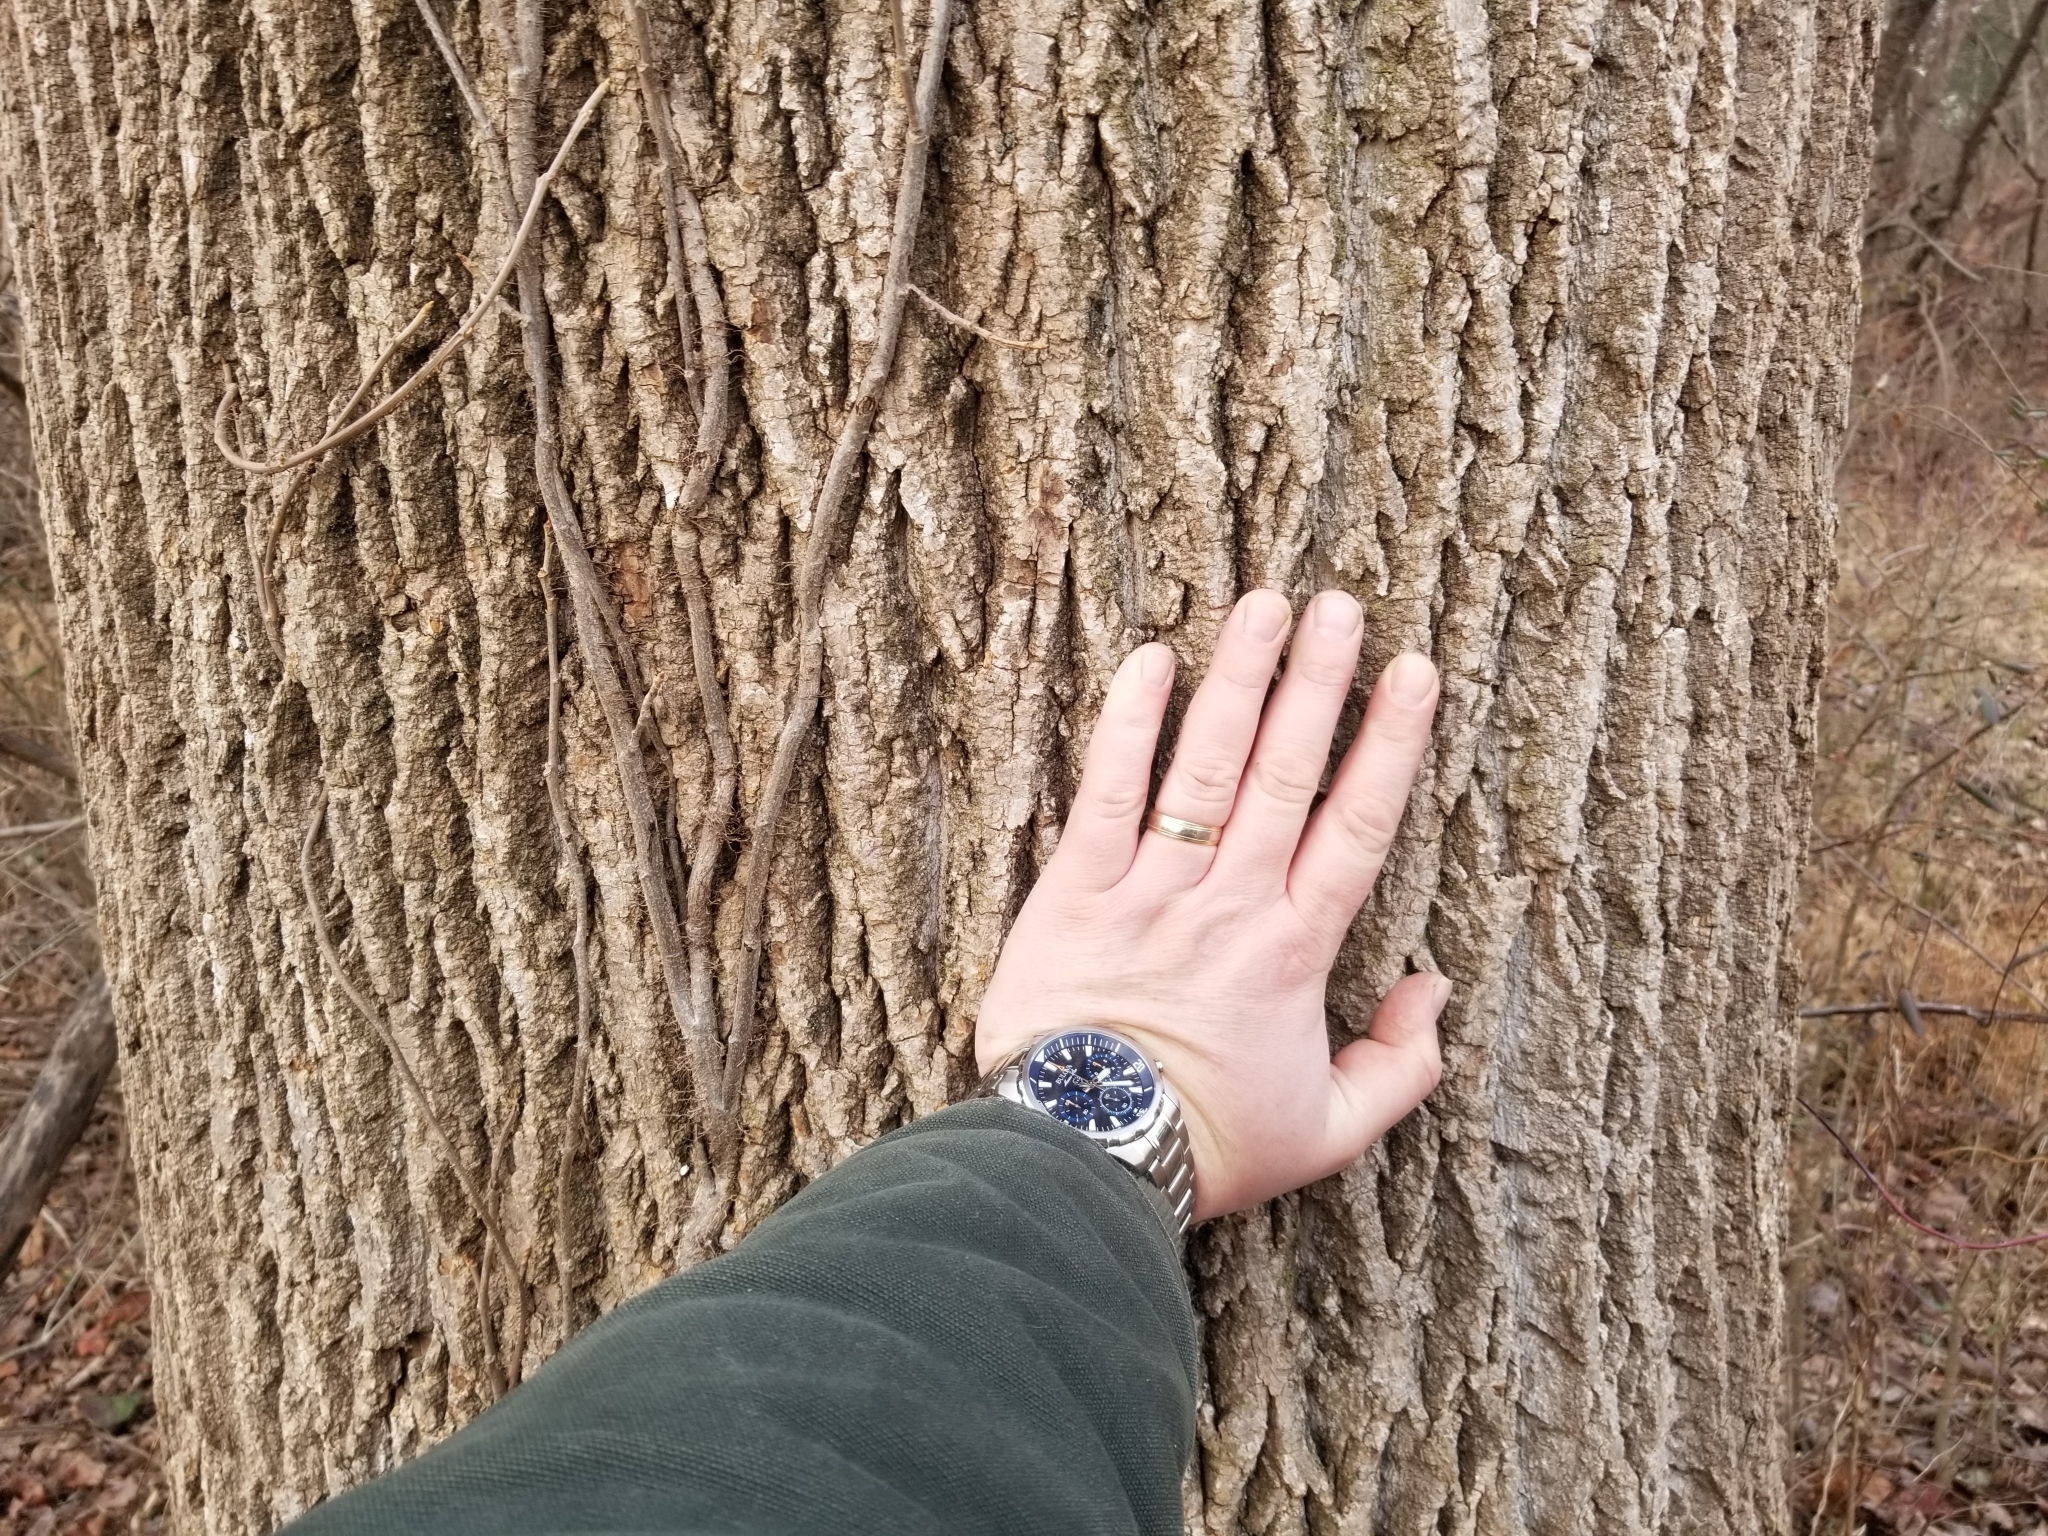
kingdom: Plantae
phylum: Tracheophyta
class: Magnoliopsida
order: Magnoliales
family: Magnoliaceae
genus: Liriodendron
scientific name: Liriodendron tulipifera
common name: Tulip tree
